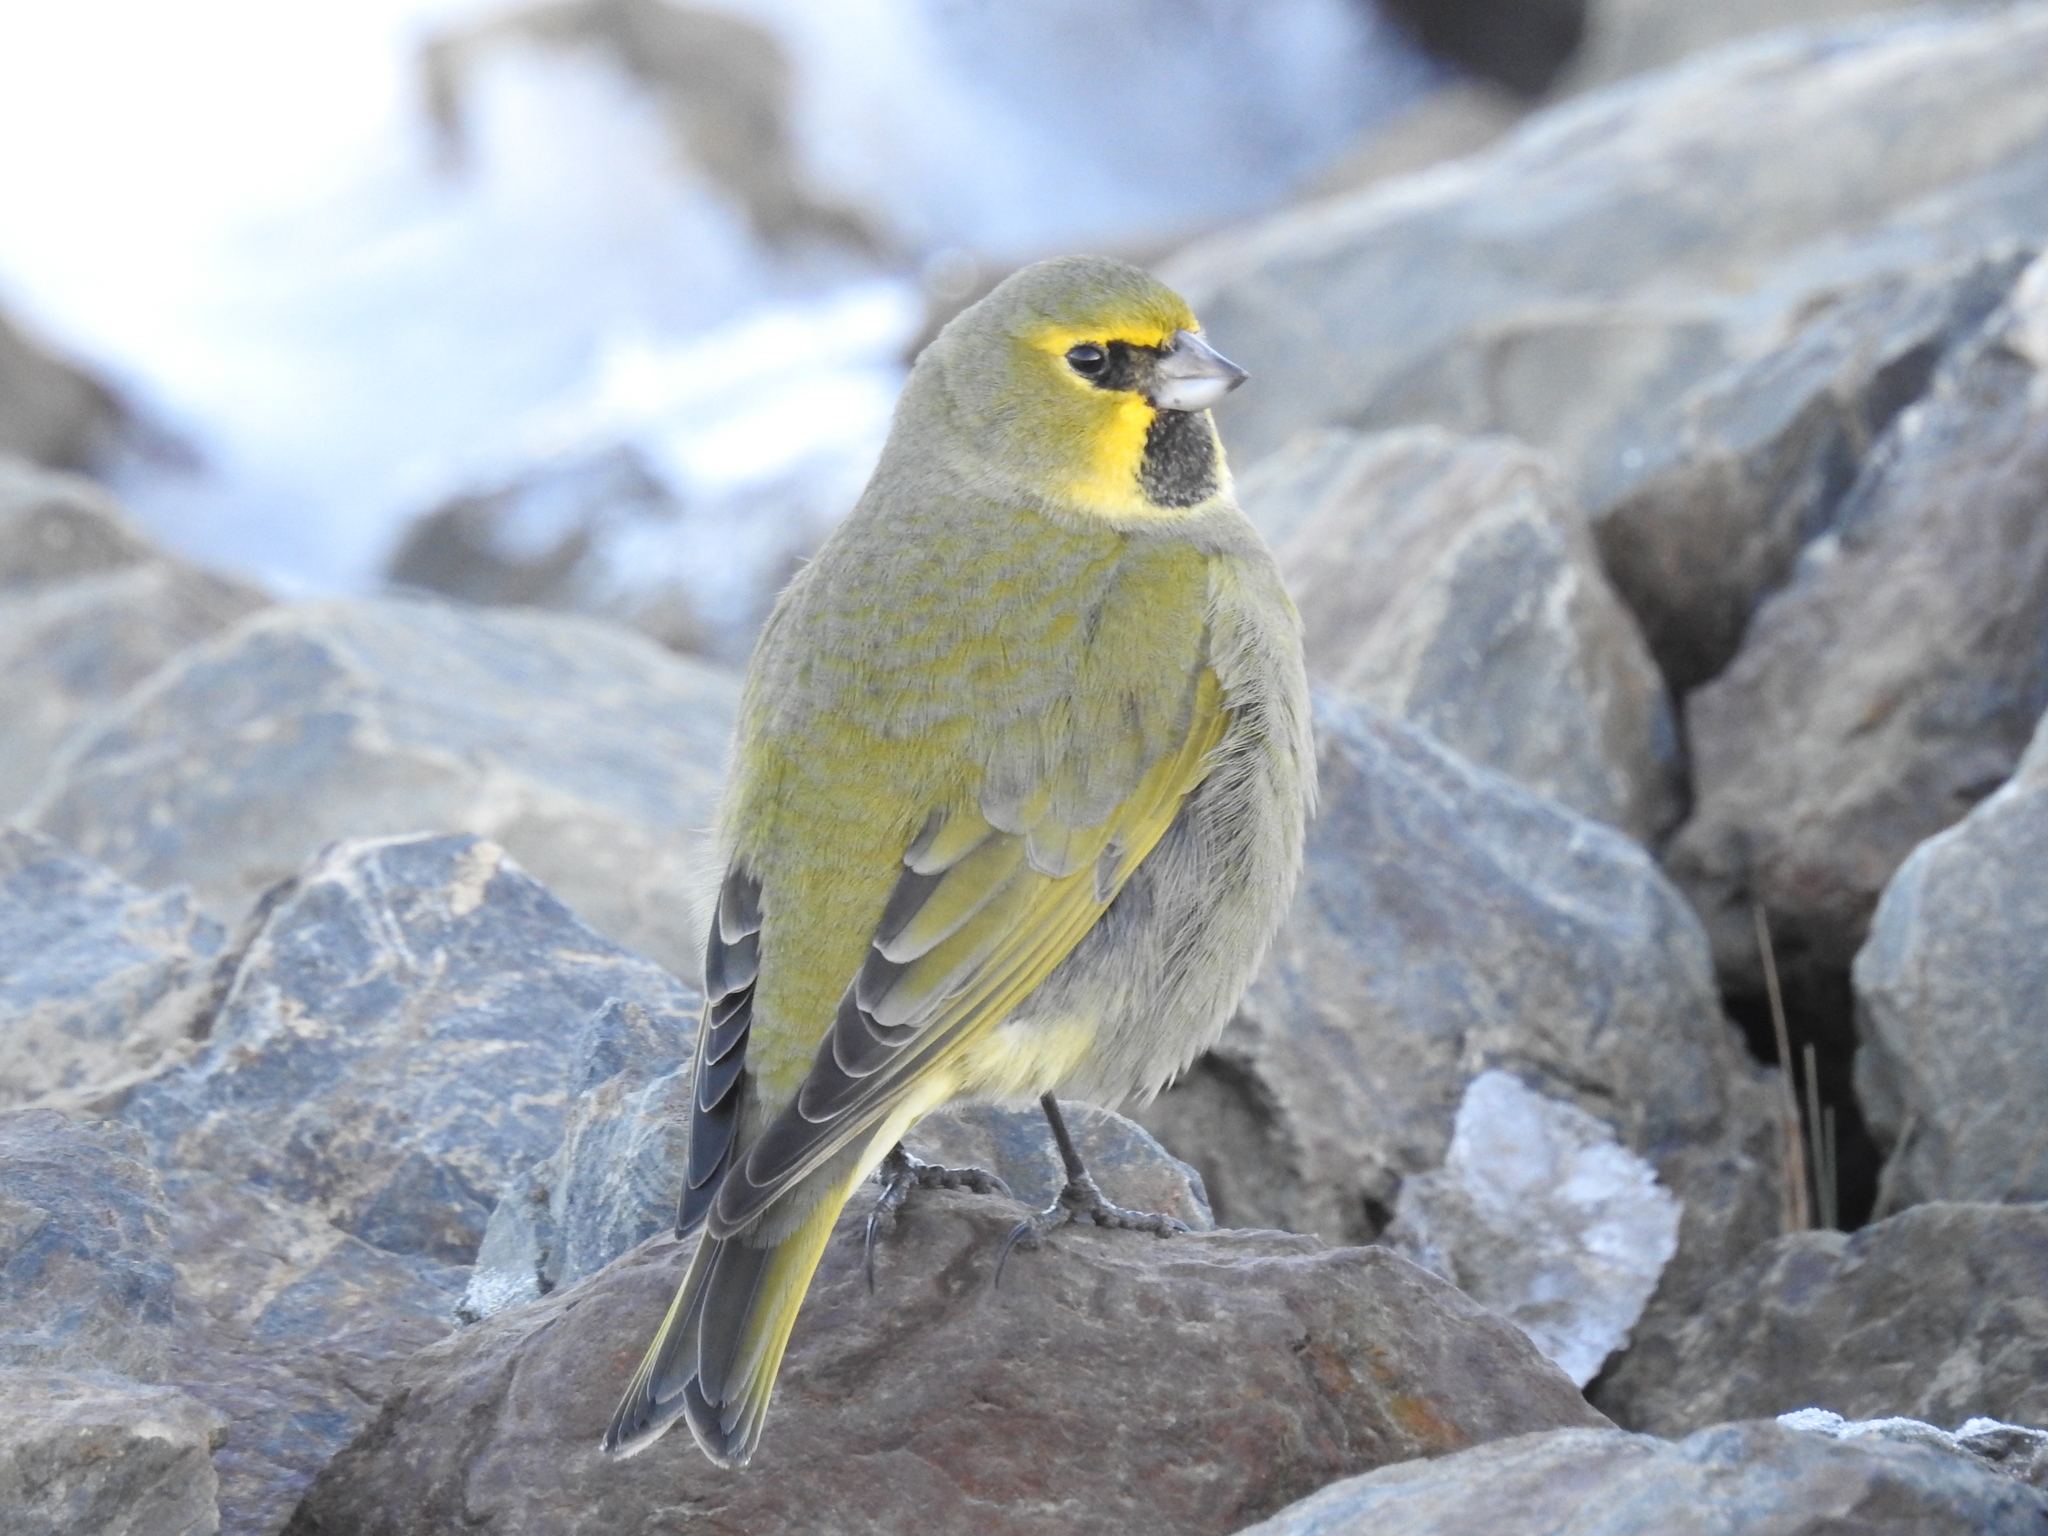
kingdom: Animalia
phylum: Chordata
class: Aves
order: Passeriformes
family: Thraupidae
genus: Melanodera
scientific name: Melanodera xanthogramma
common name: Yellow-bridled finch
